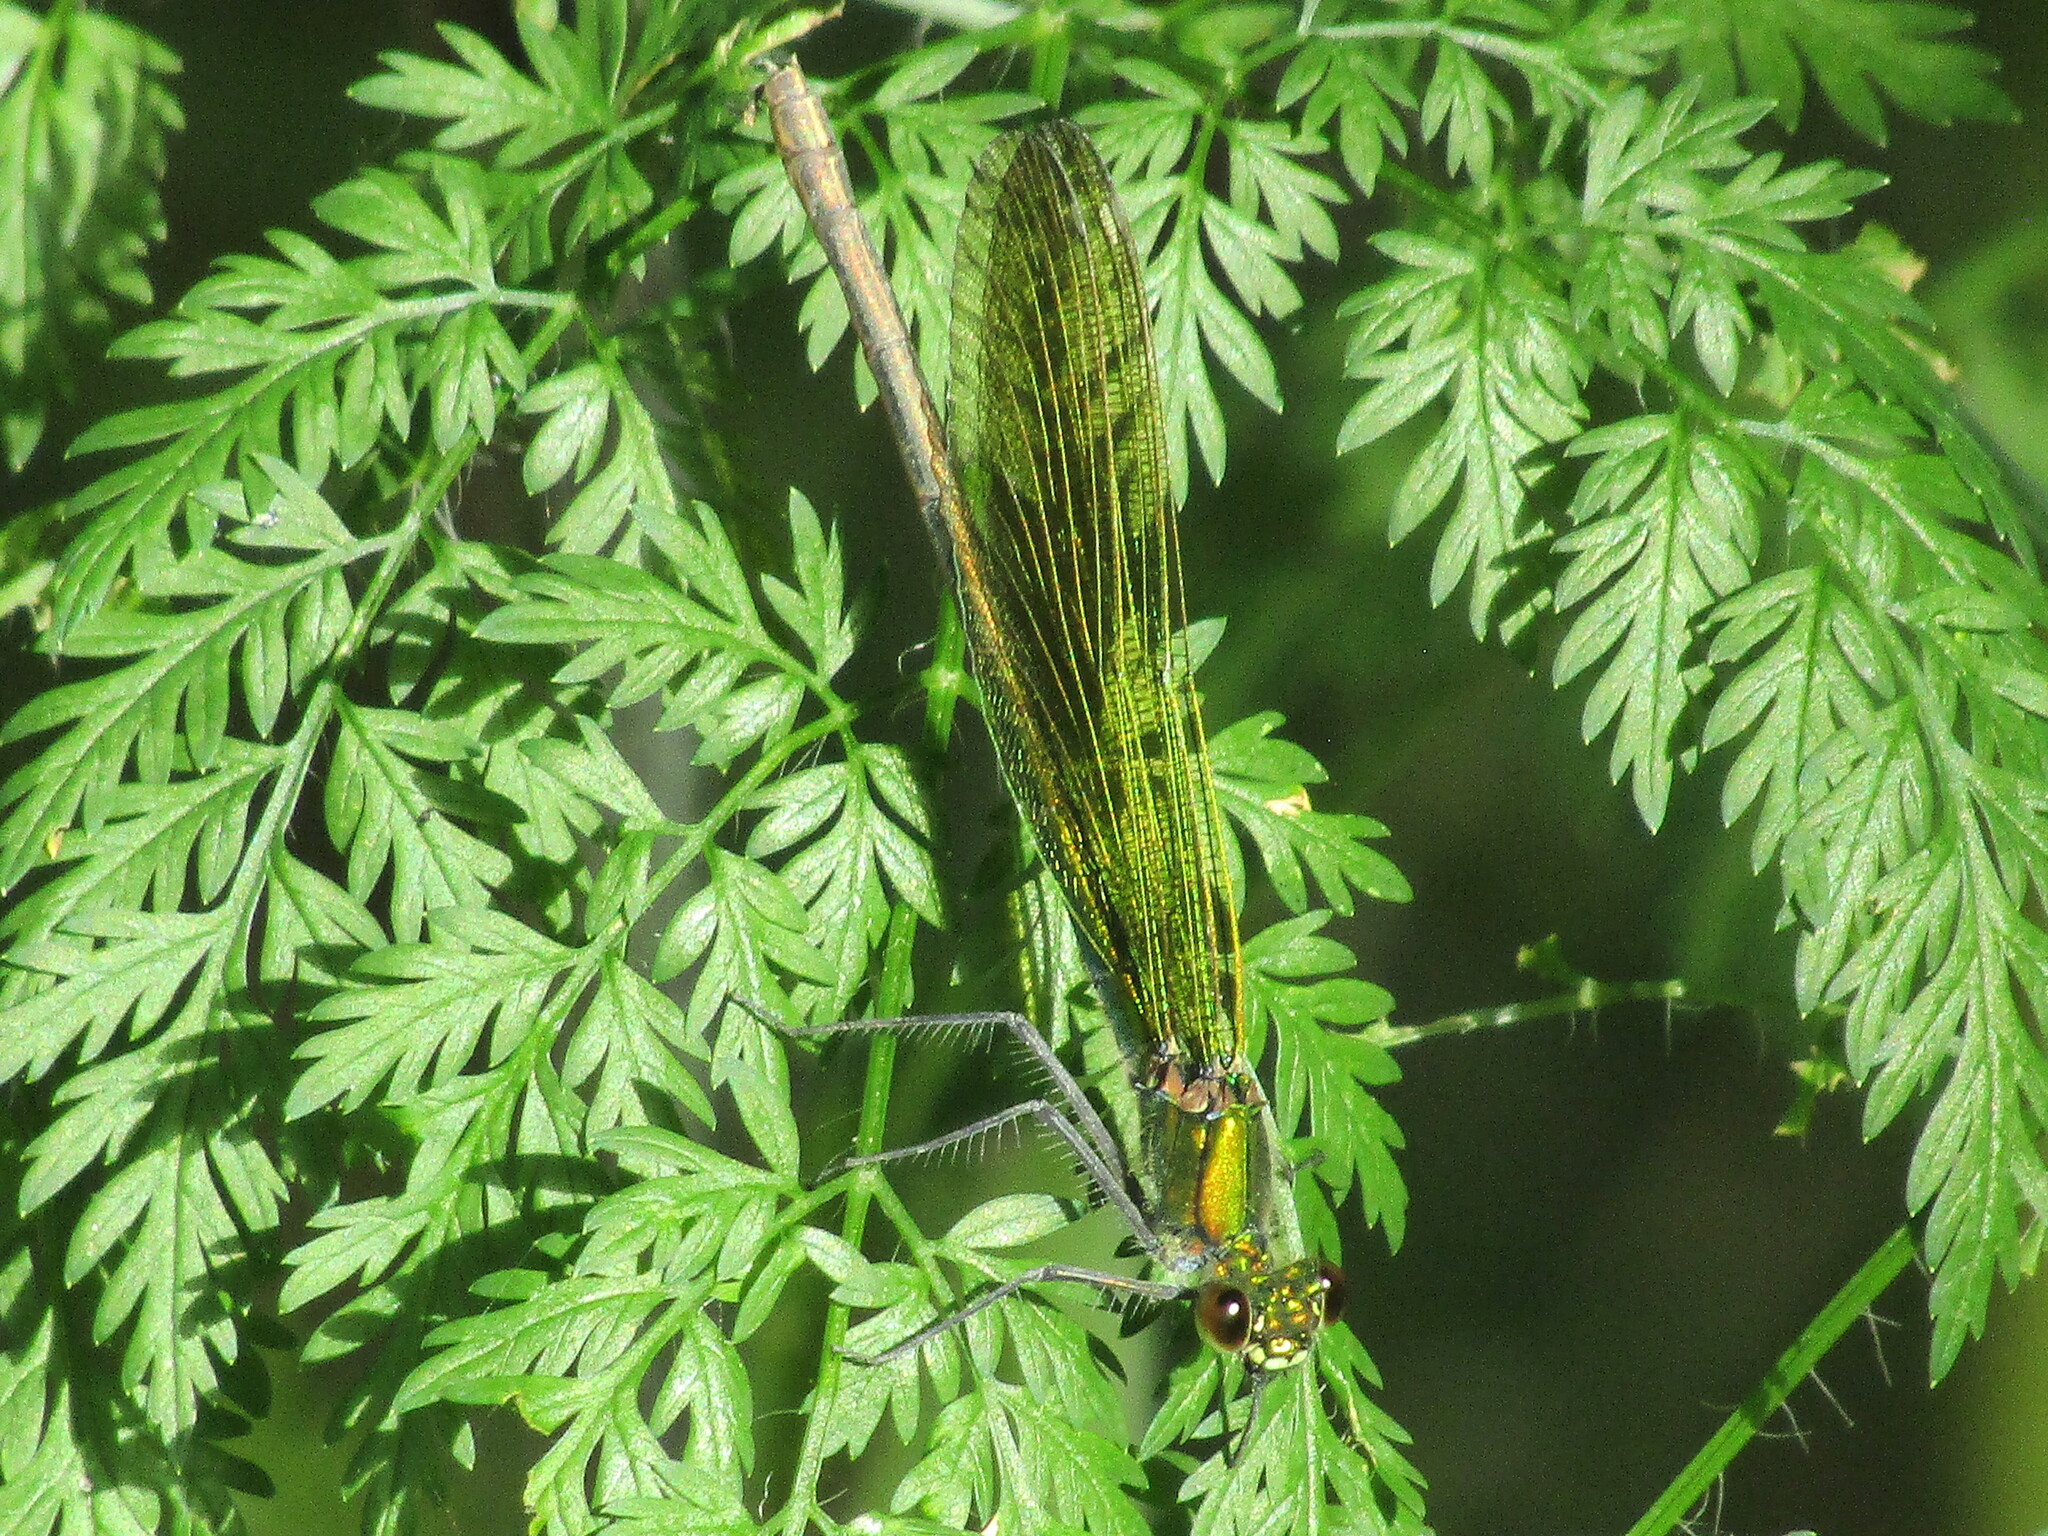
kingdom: Animalia
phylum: Arthropoda
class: Insecta
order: Odonata
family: Calopterygidae
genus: Calopteryx
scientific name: Calopteryx splendens
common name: Banded demoiselle
